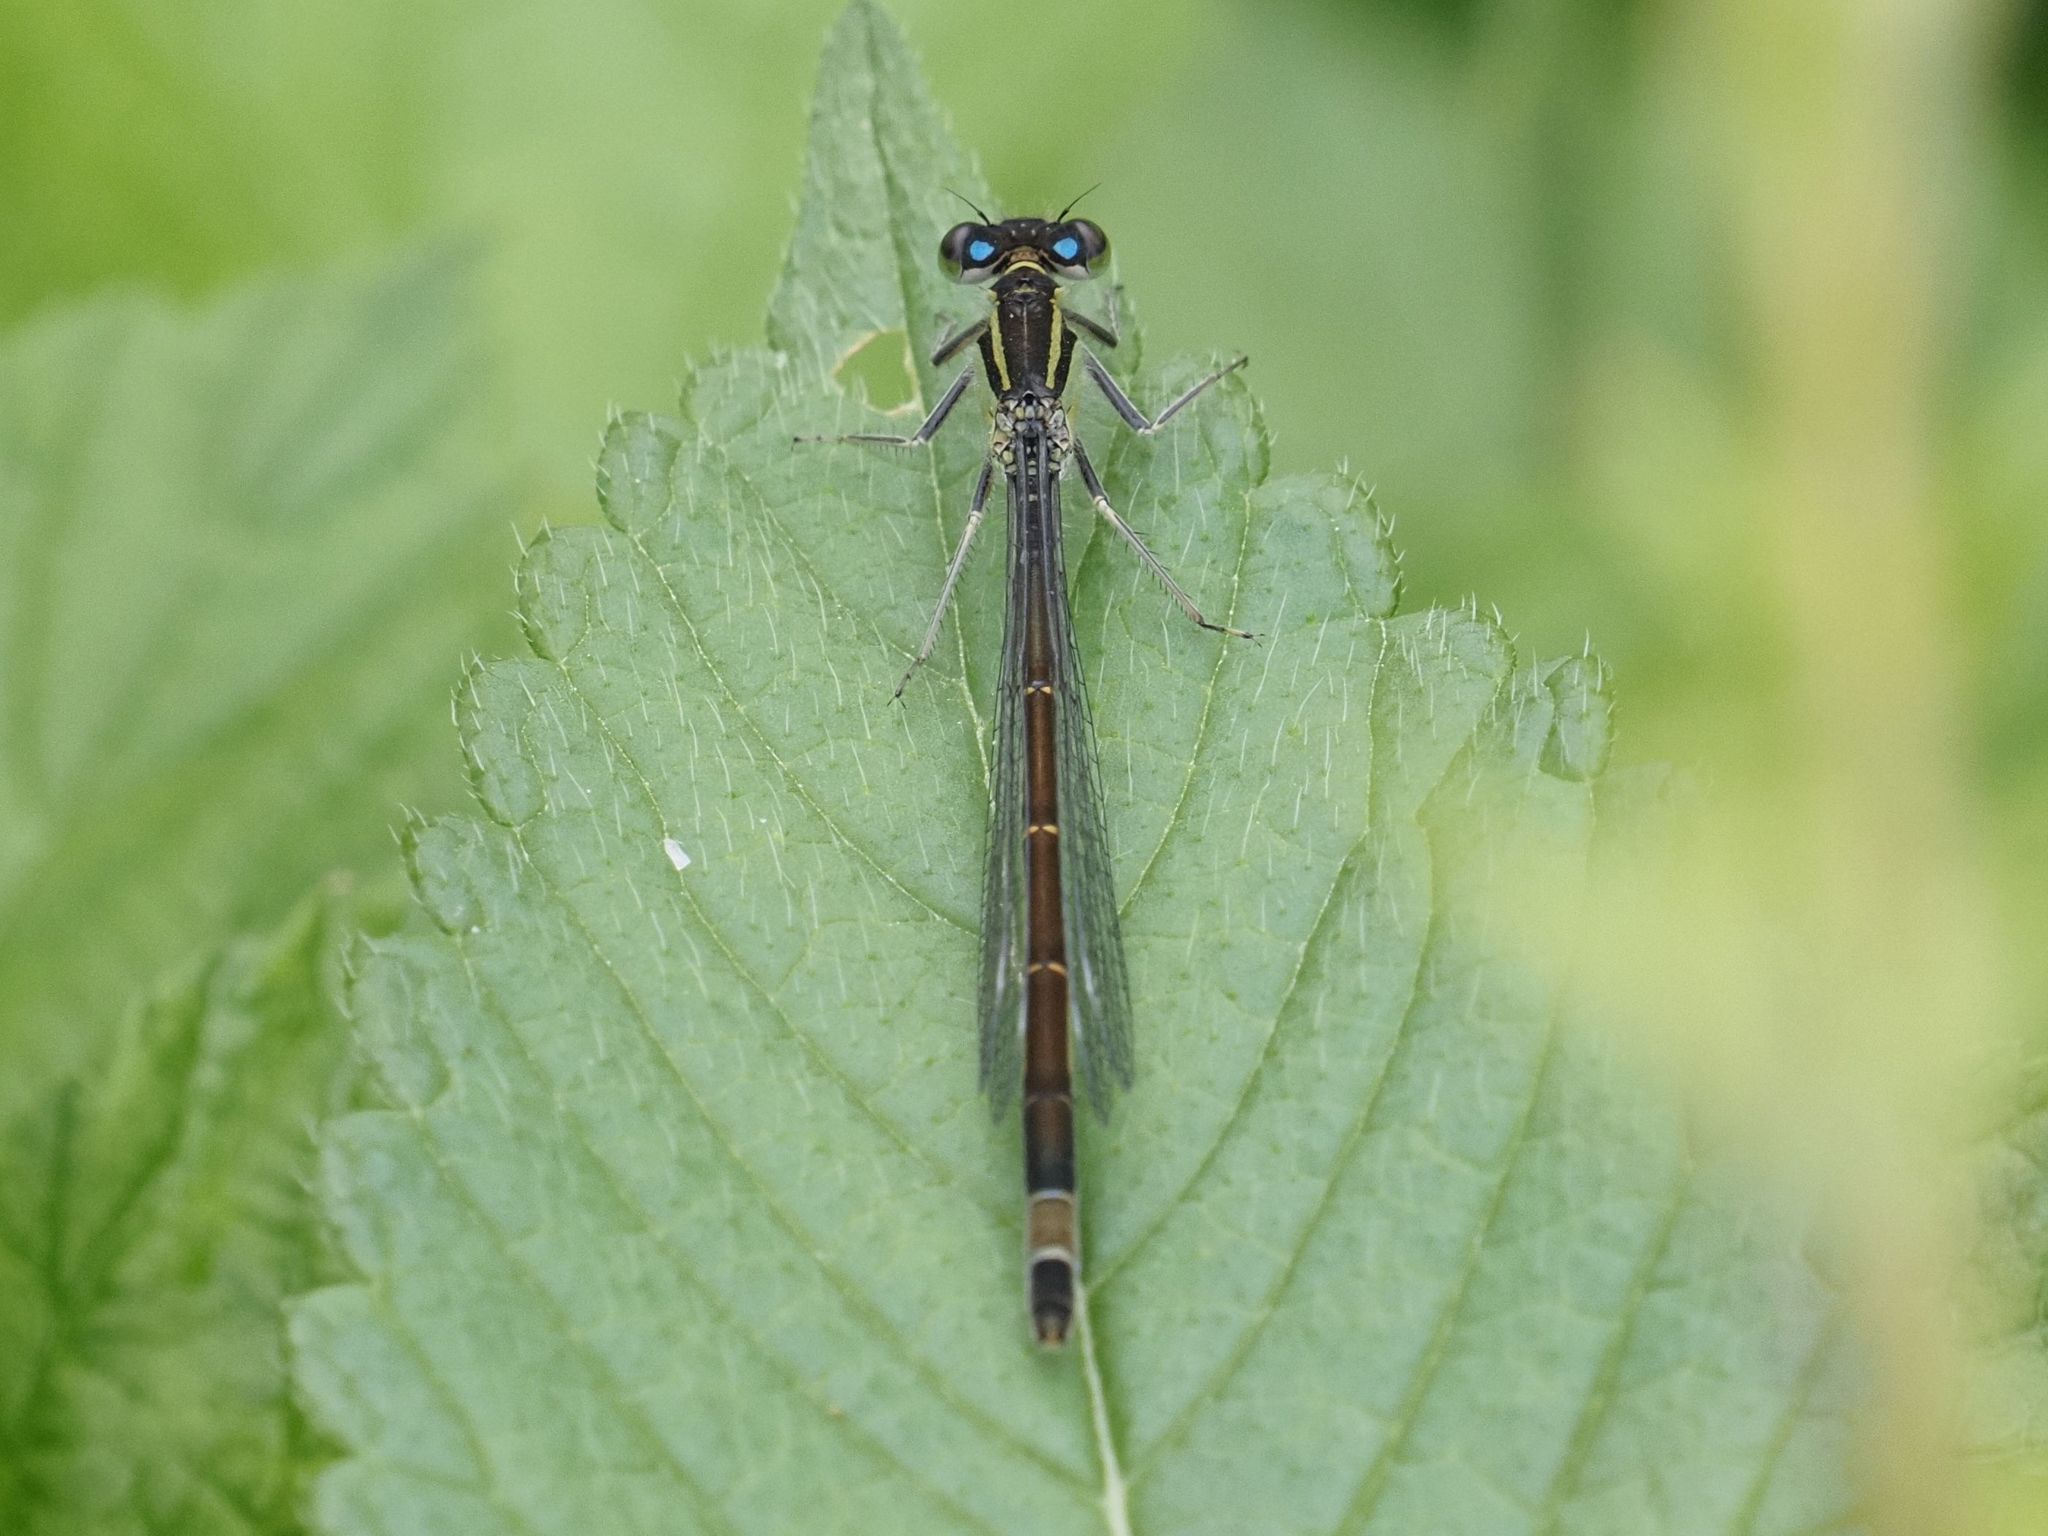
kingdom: Animalia
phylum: Arthropoda
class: Insecta
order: Odonata
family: Coenagrionidae
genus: Ischnura
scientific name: Ischnura elegans
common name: Blue-tailed damselfly
